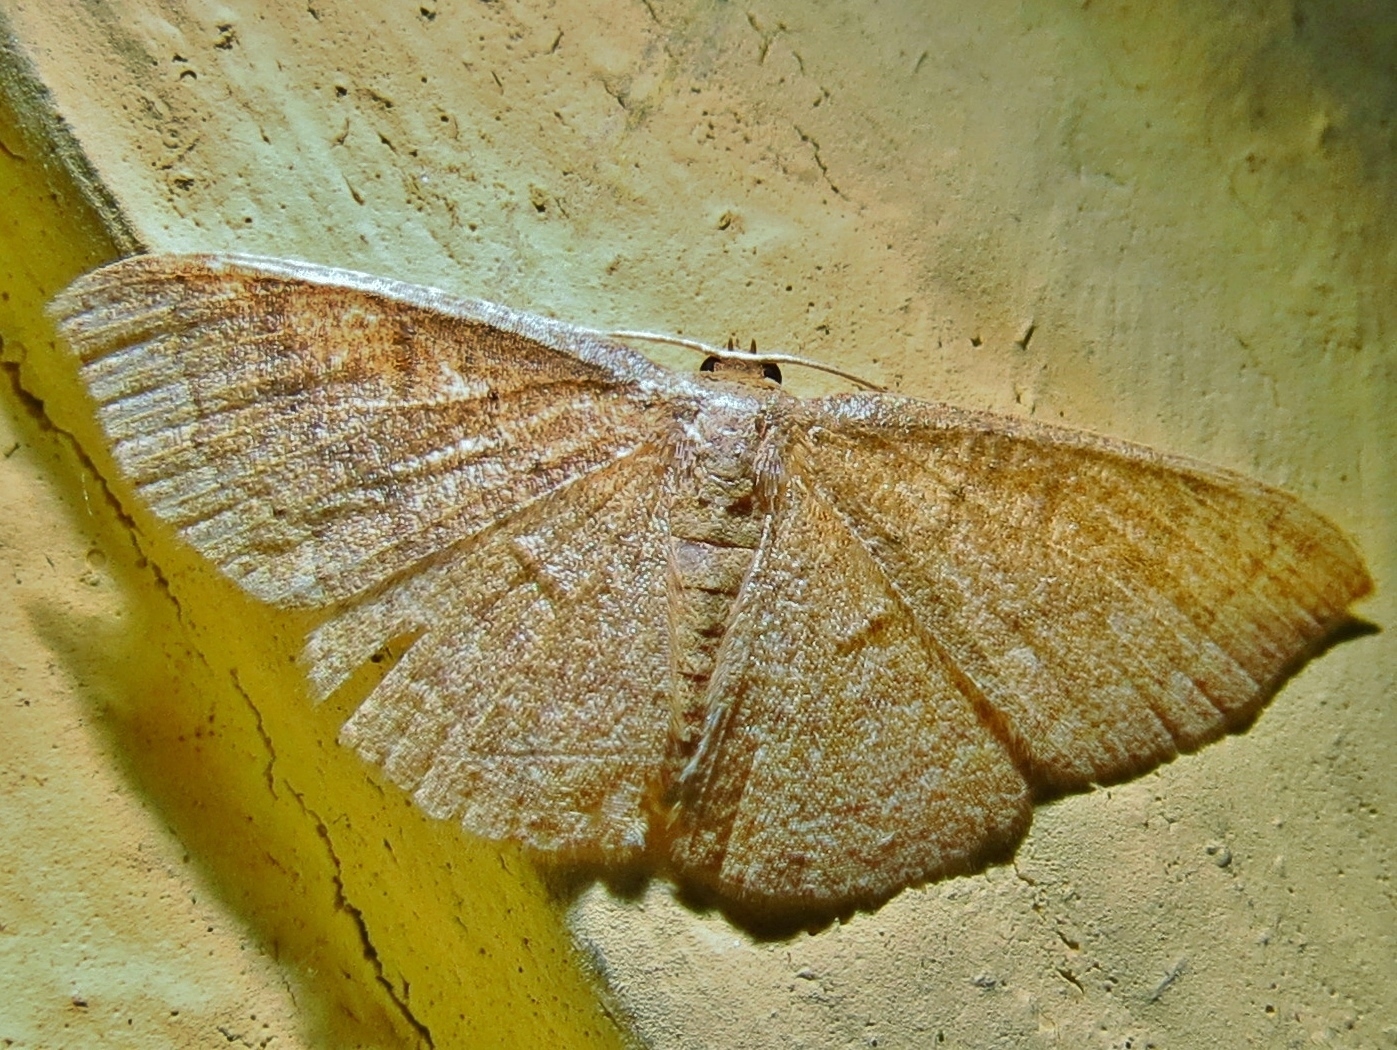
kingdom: Animalia
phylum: Arthropoda
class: Insecta
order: Lepidoptera
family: Geometridae
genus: Pleuroprucha
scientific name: Pleuroprucha insulsaria
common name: Common tan wave
